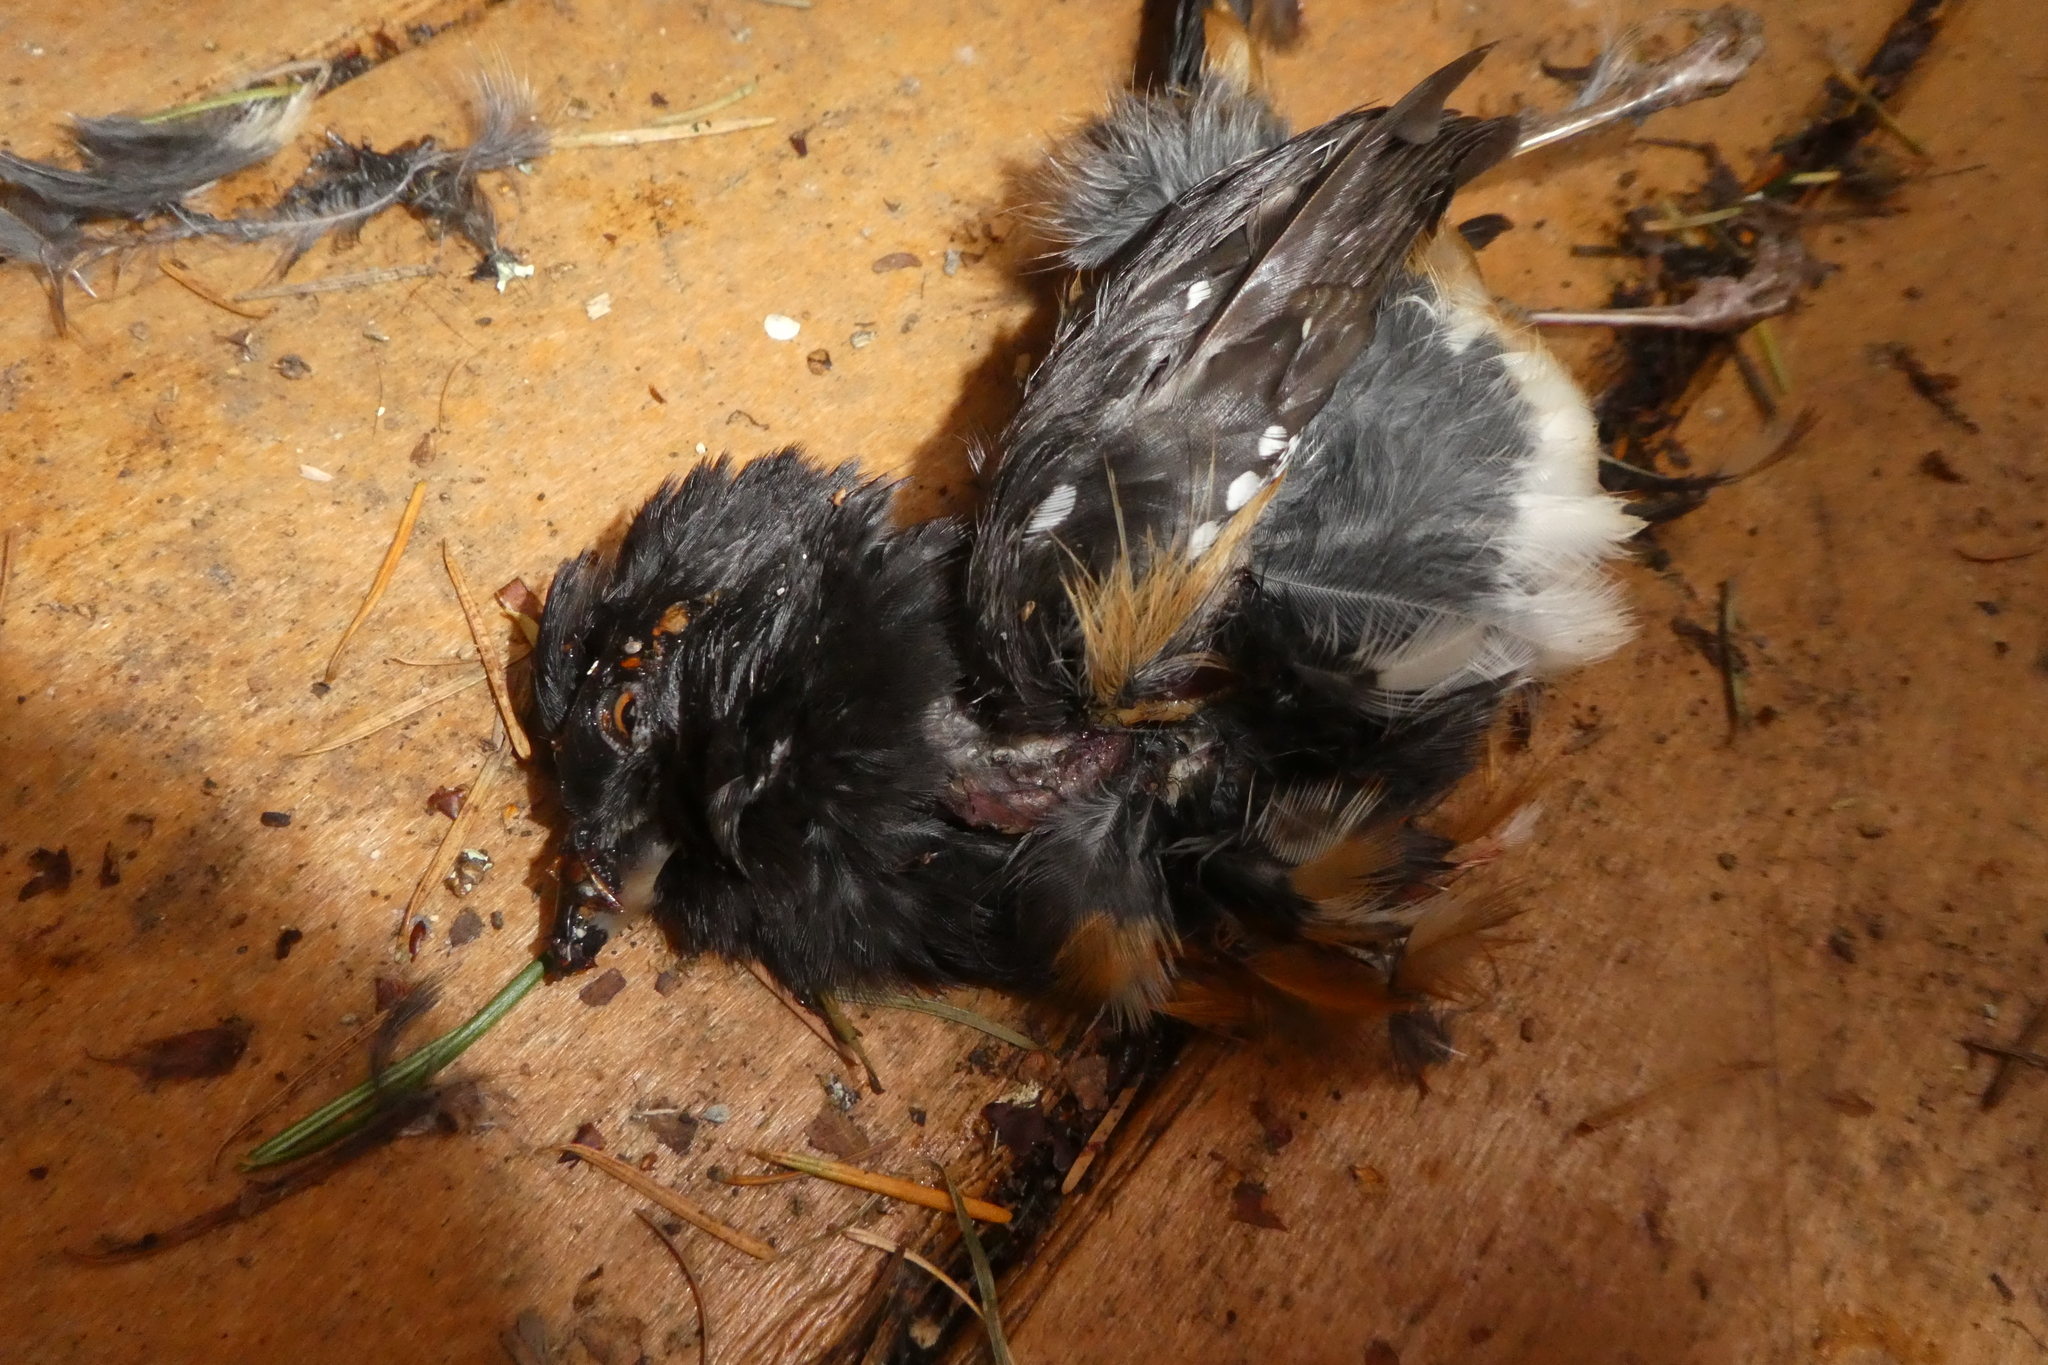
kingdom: Animalia
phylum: Chordata
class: Aves
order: Passeriformes
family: Passerellidae
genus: Pipilo
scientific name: Pipilo maculatus
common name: Spotted towhee
